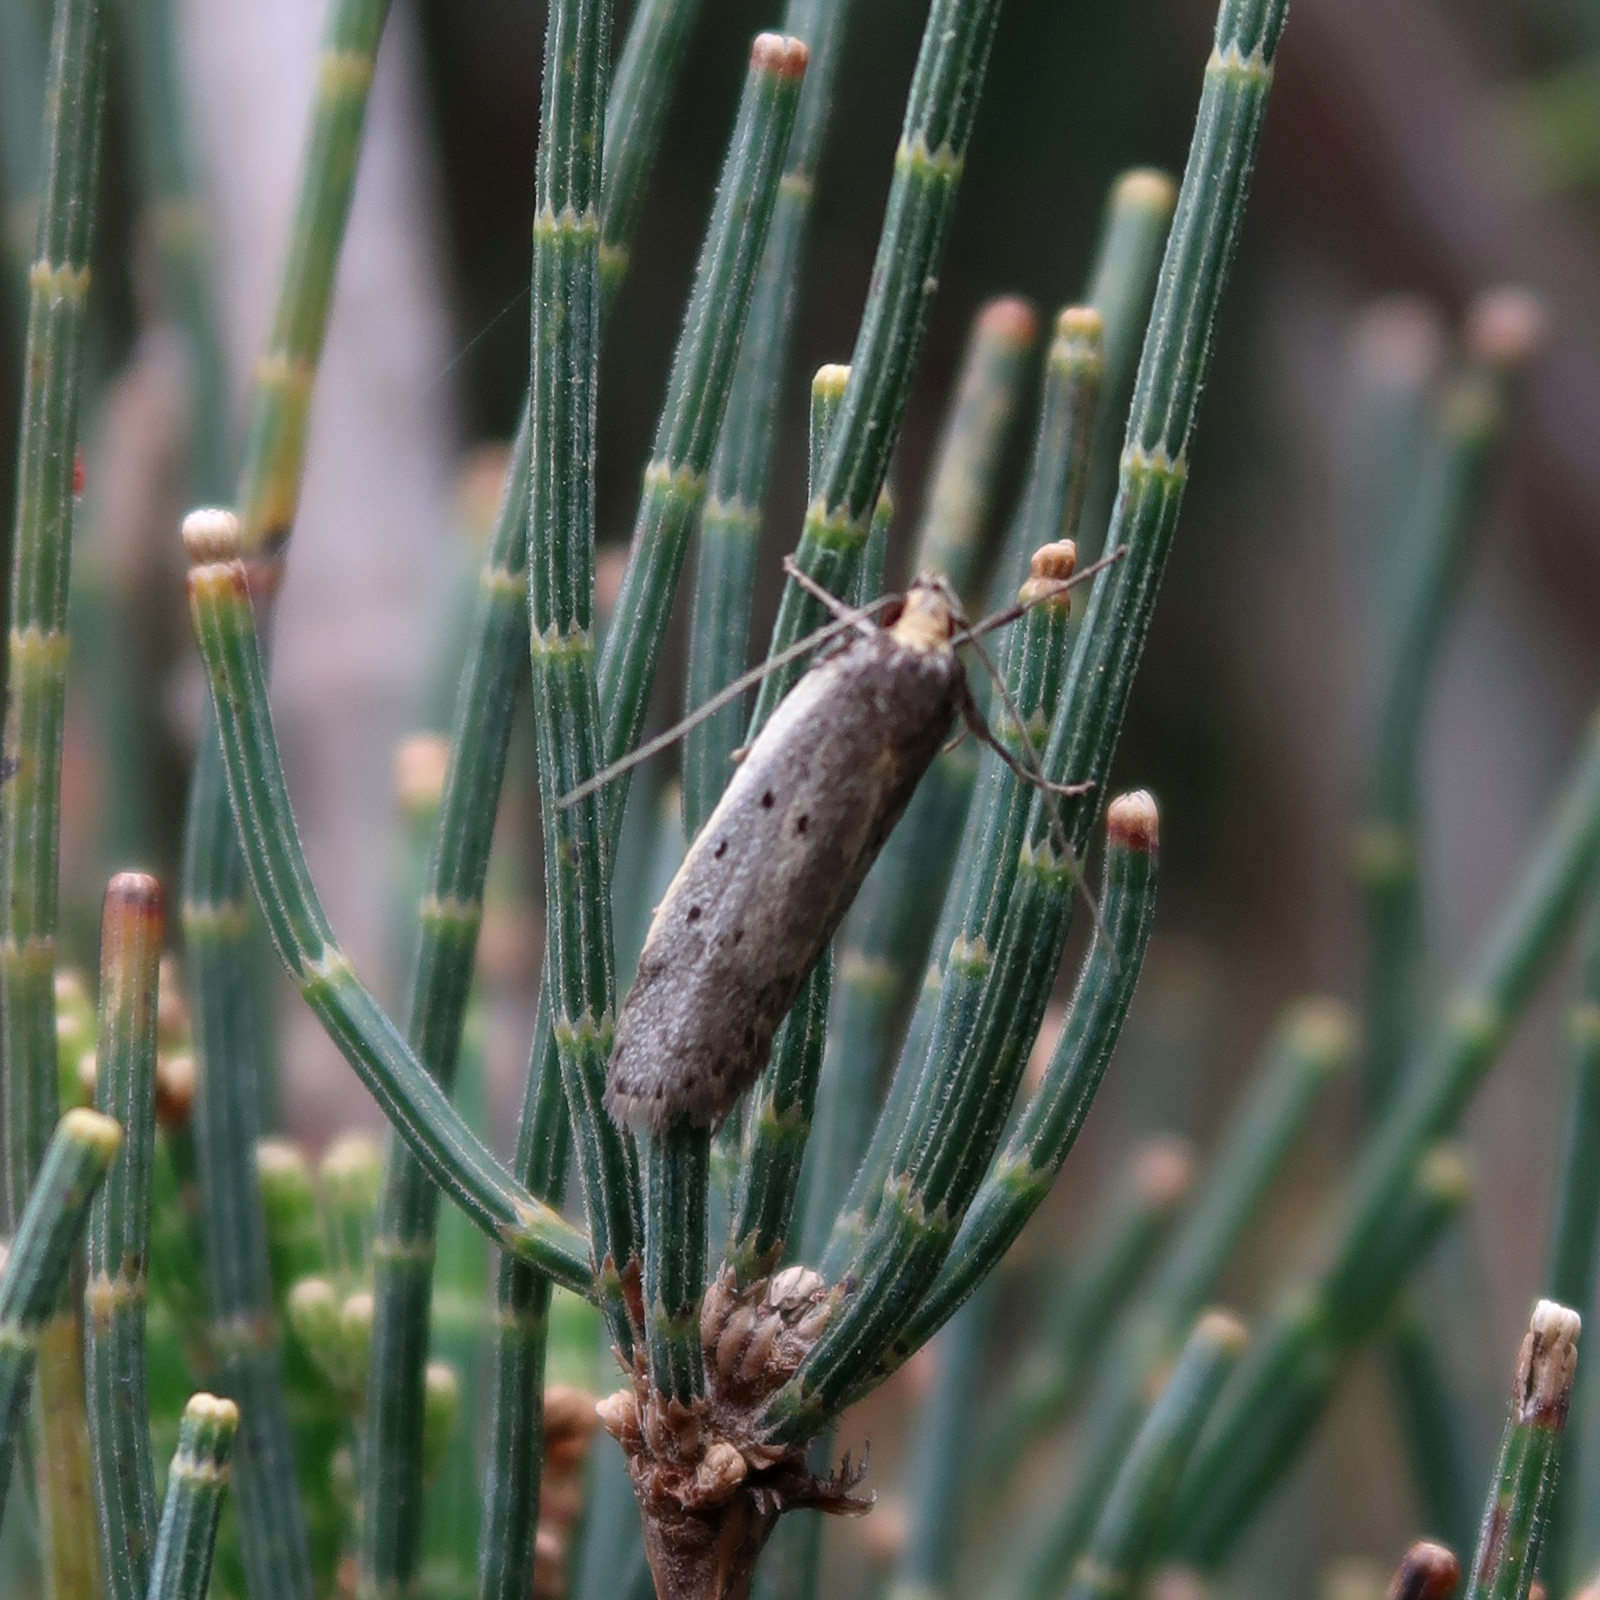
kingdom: Animalia
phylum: Arthropoda
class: Insecta
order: Lepidoptera
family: Oecophoridae
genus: Philobota
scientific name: Philobota atmobola
